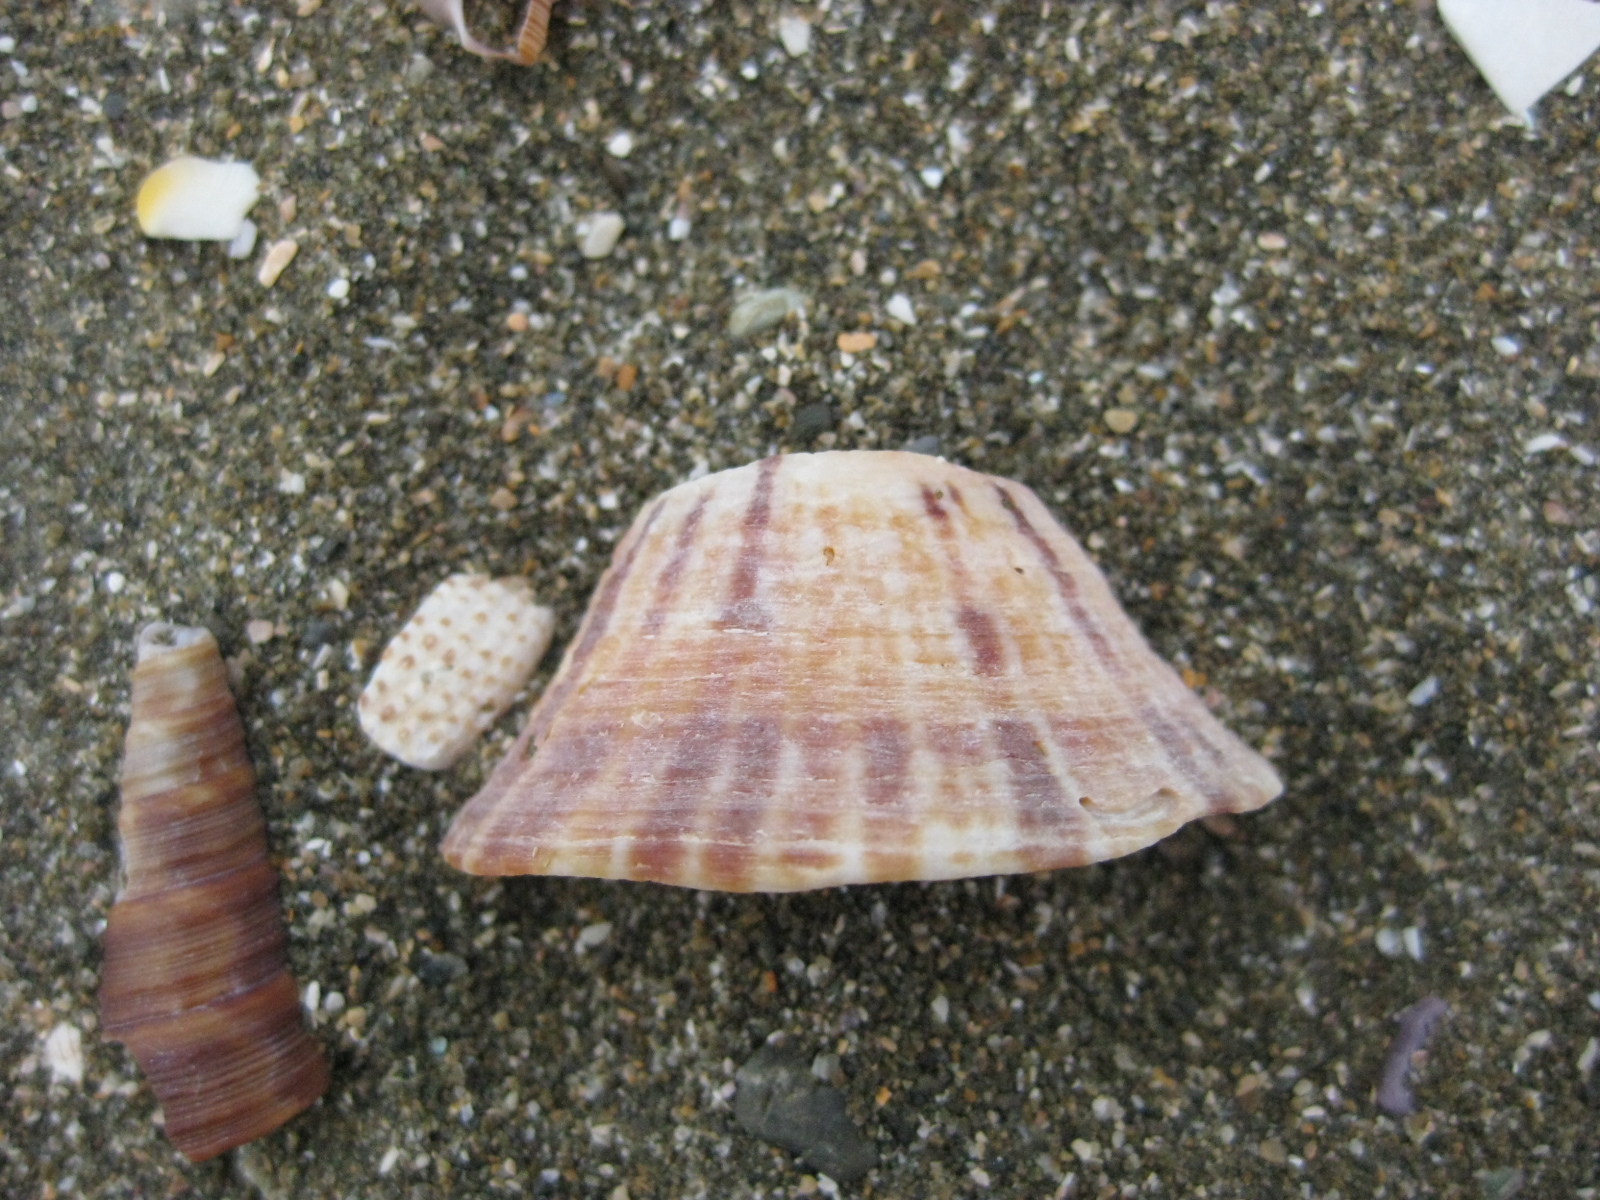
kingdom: Animalia
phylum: Mollusca
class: Gastropoda
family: Nacellidae
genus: Cellana
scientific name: Cellana stellifera
